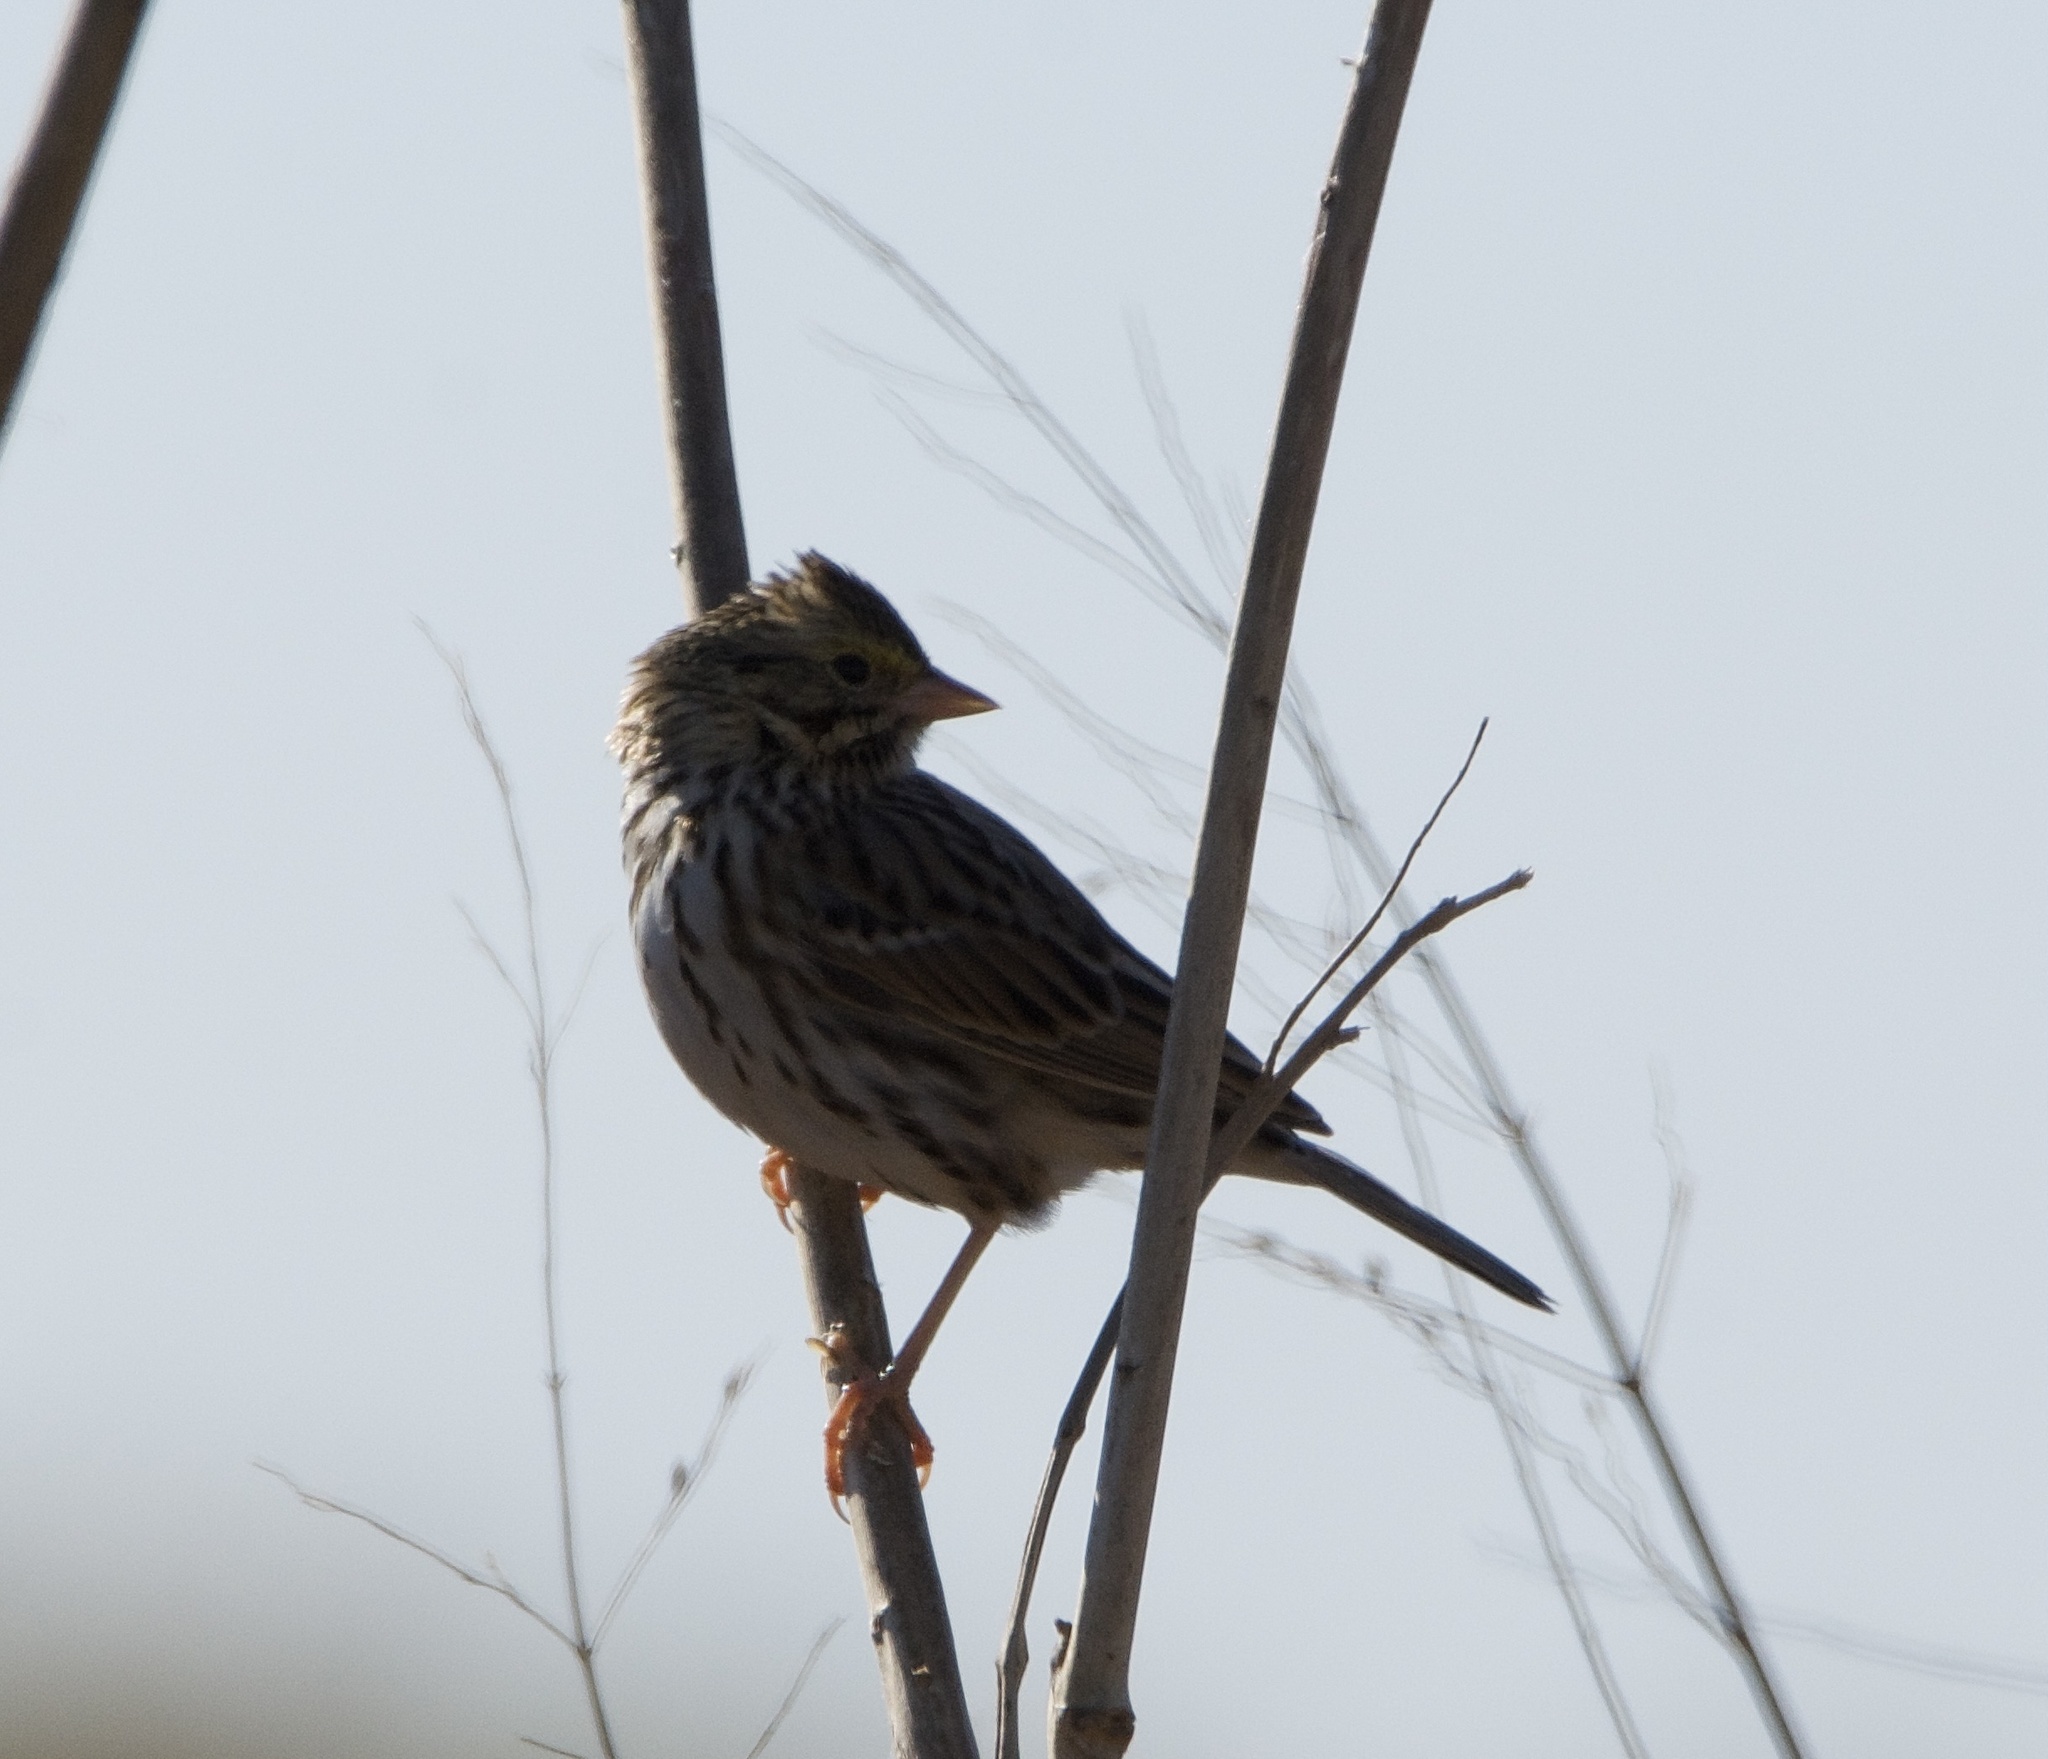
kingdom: Animalia
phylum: Chordata
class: Aves
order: Passeriformes
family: Passerellidae
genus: Passerculus
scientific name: Passerculus sandwichensis
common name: Savannah sparrow
